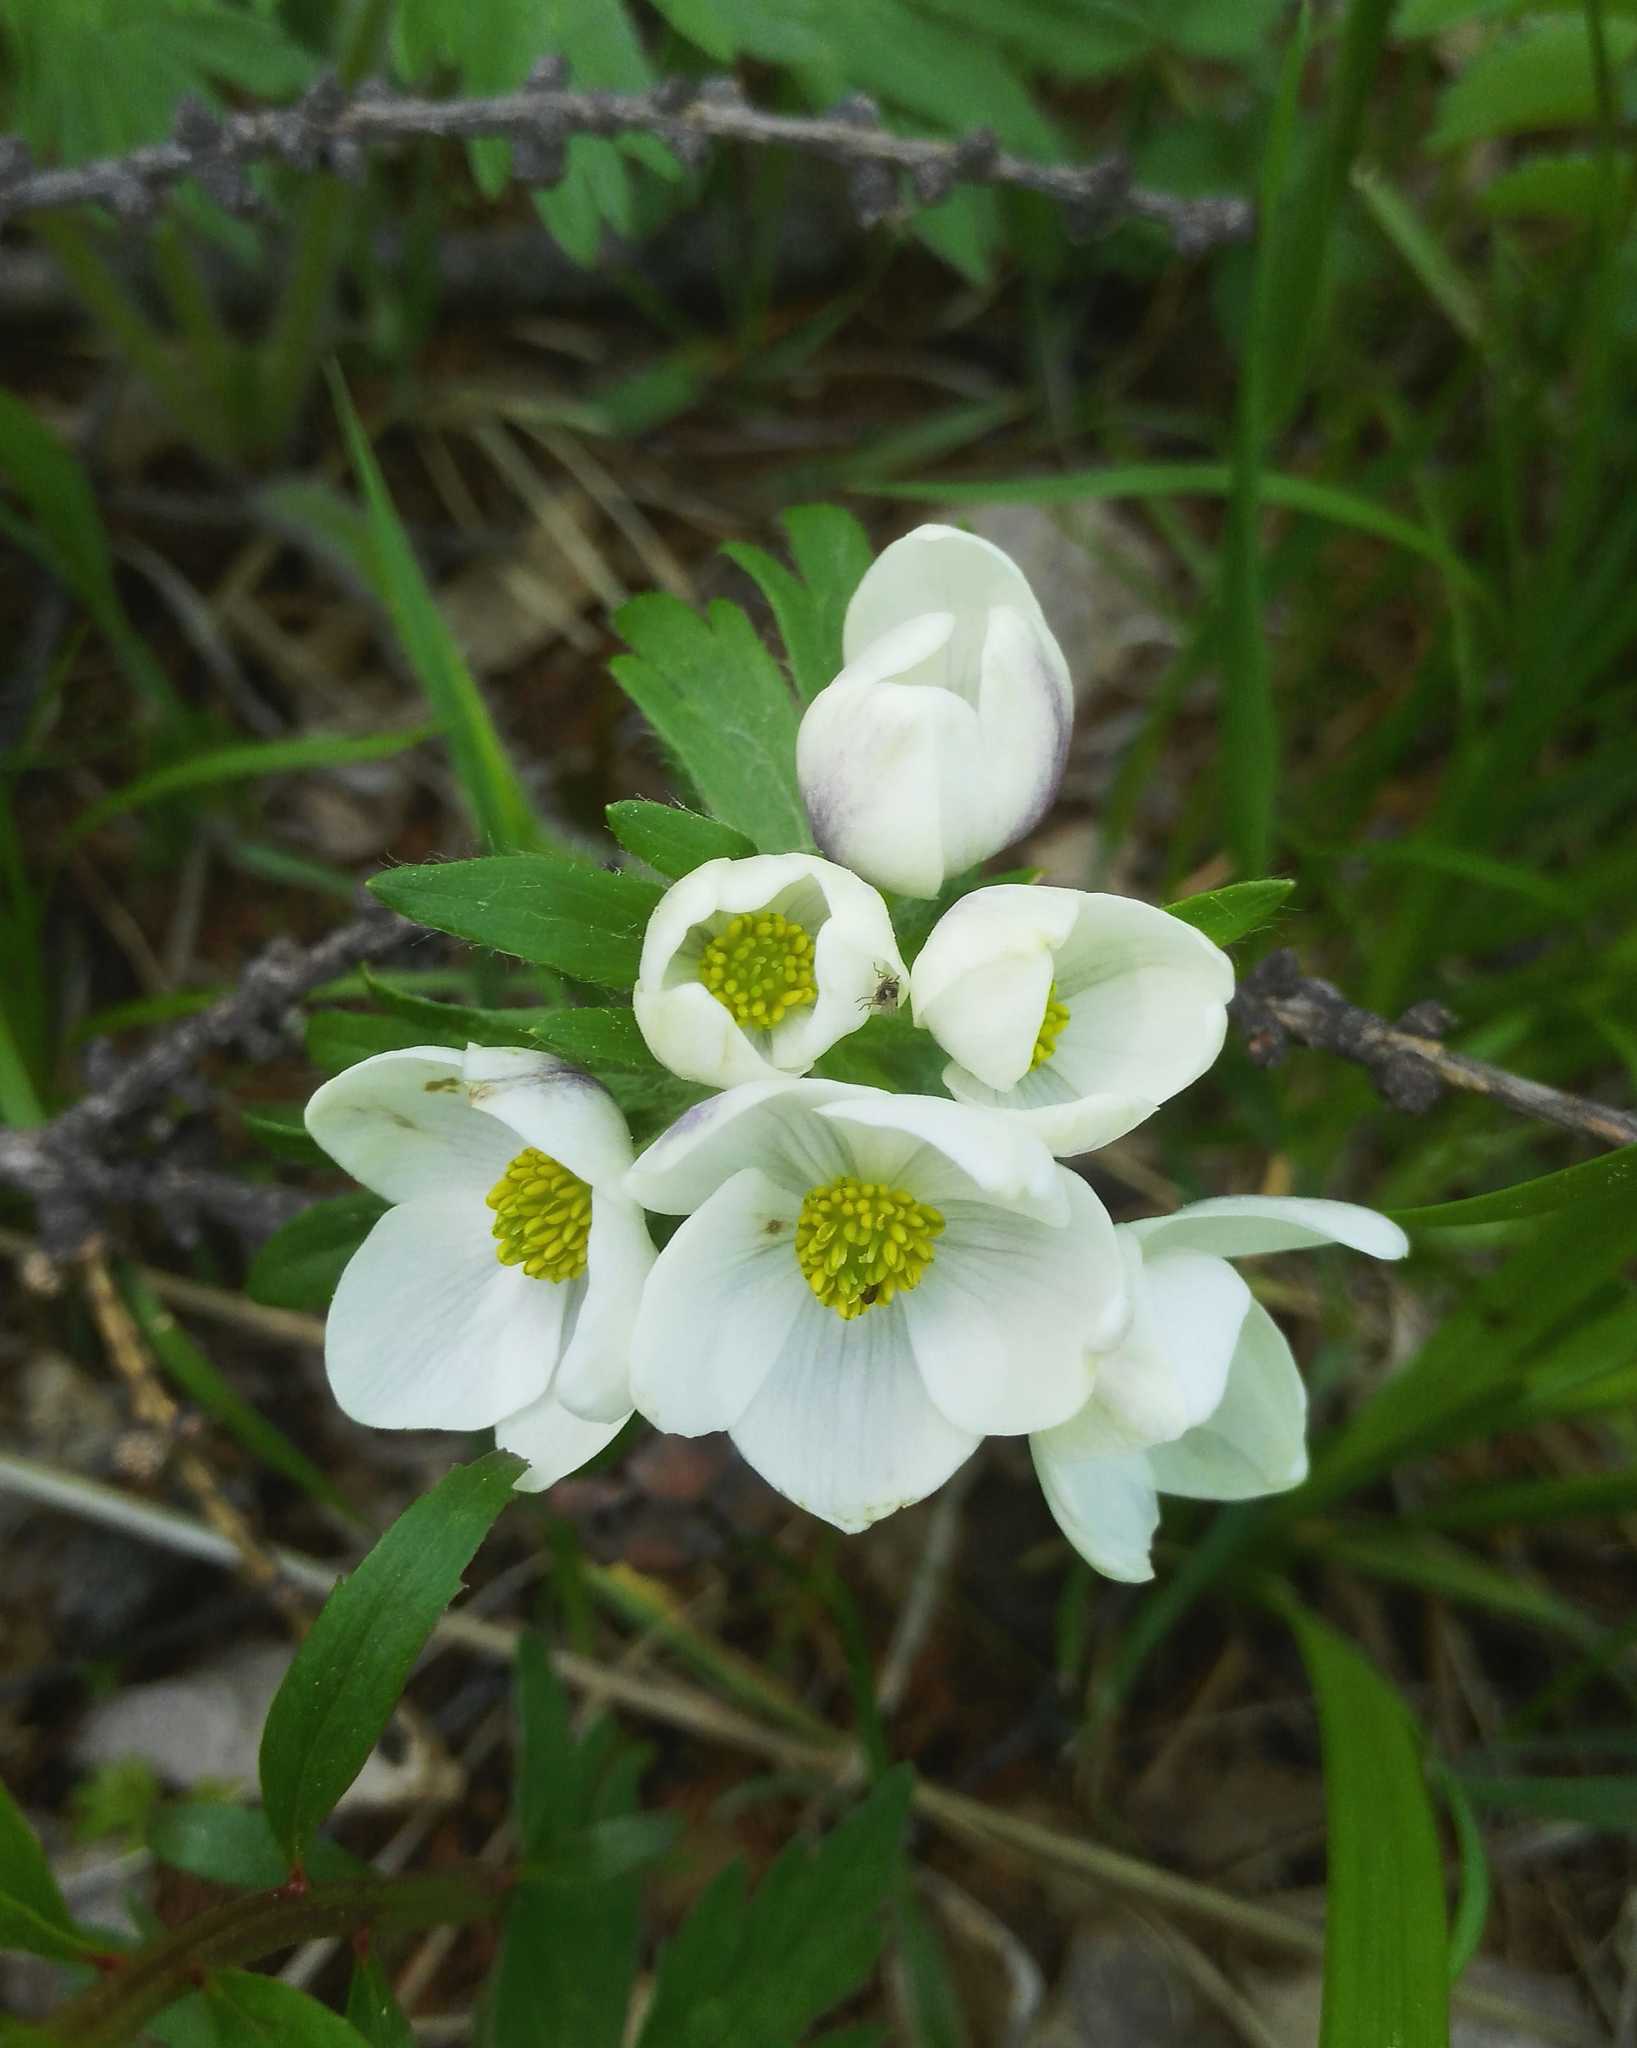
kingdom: Plantae
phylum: Tracheophyta
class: Magnoliopsida
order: Ranunculales
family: Ranunculaceae
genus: Anemonastrum
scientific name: Anemonastrum narcissiflorum
